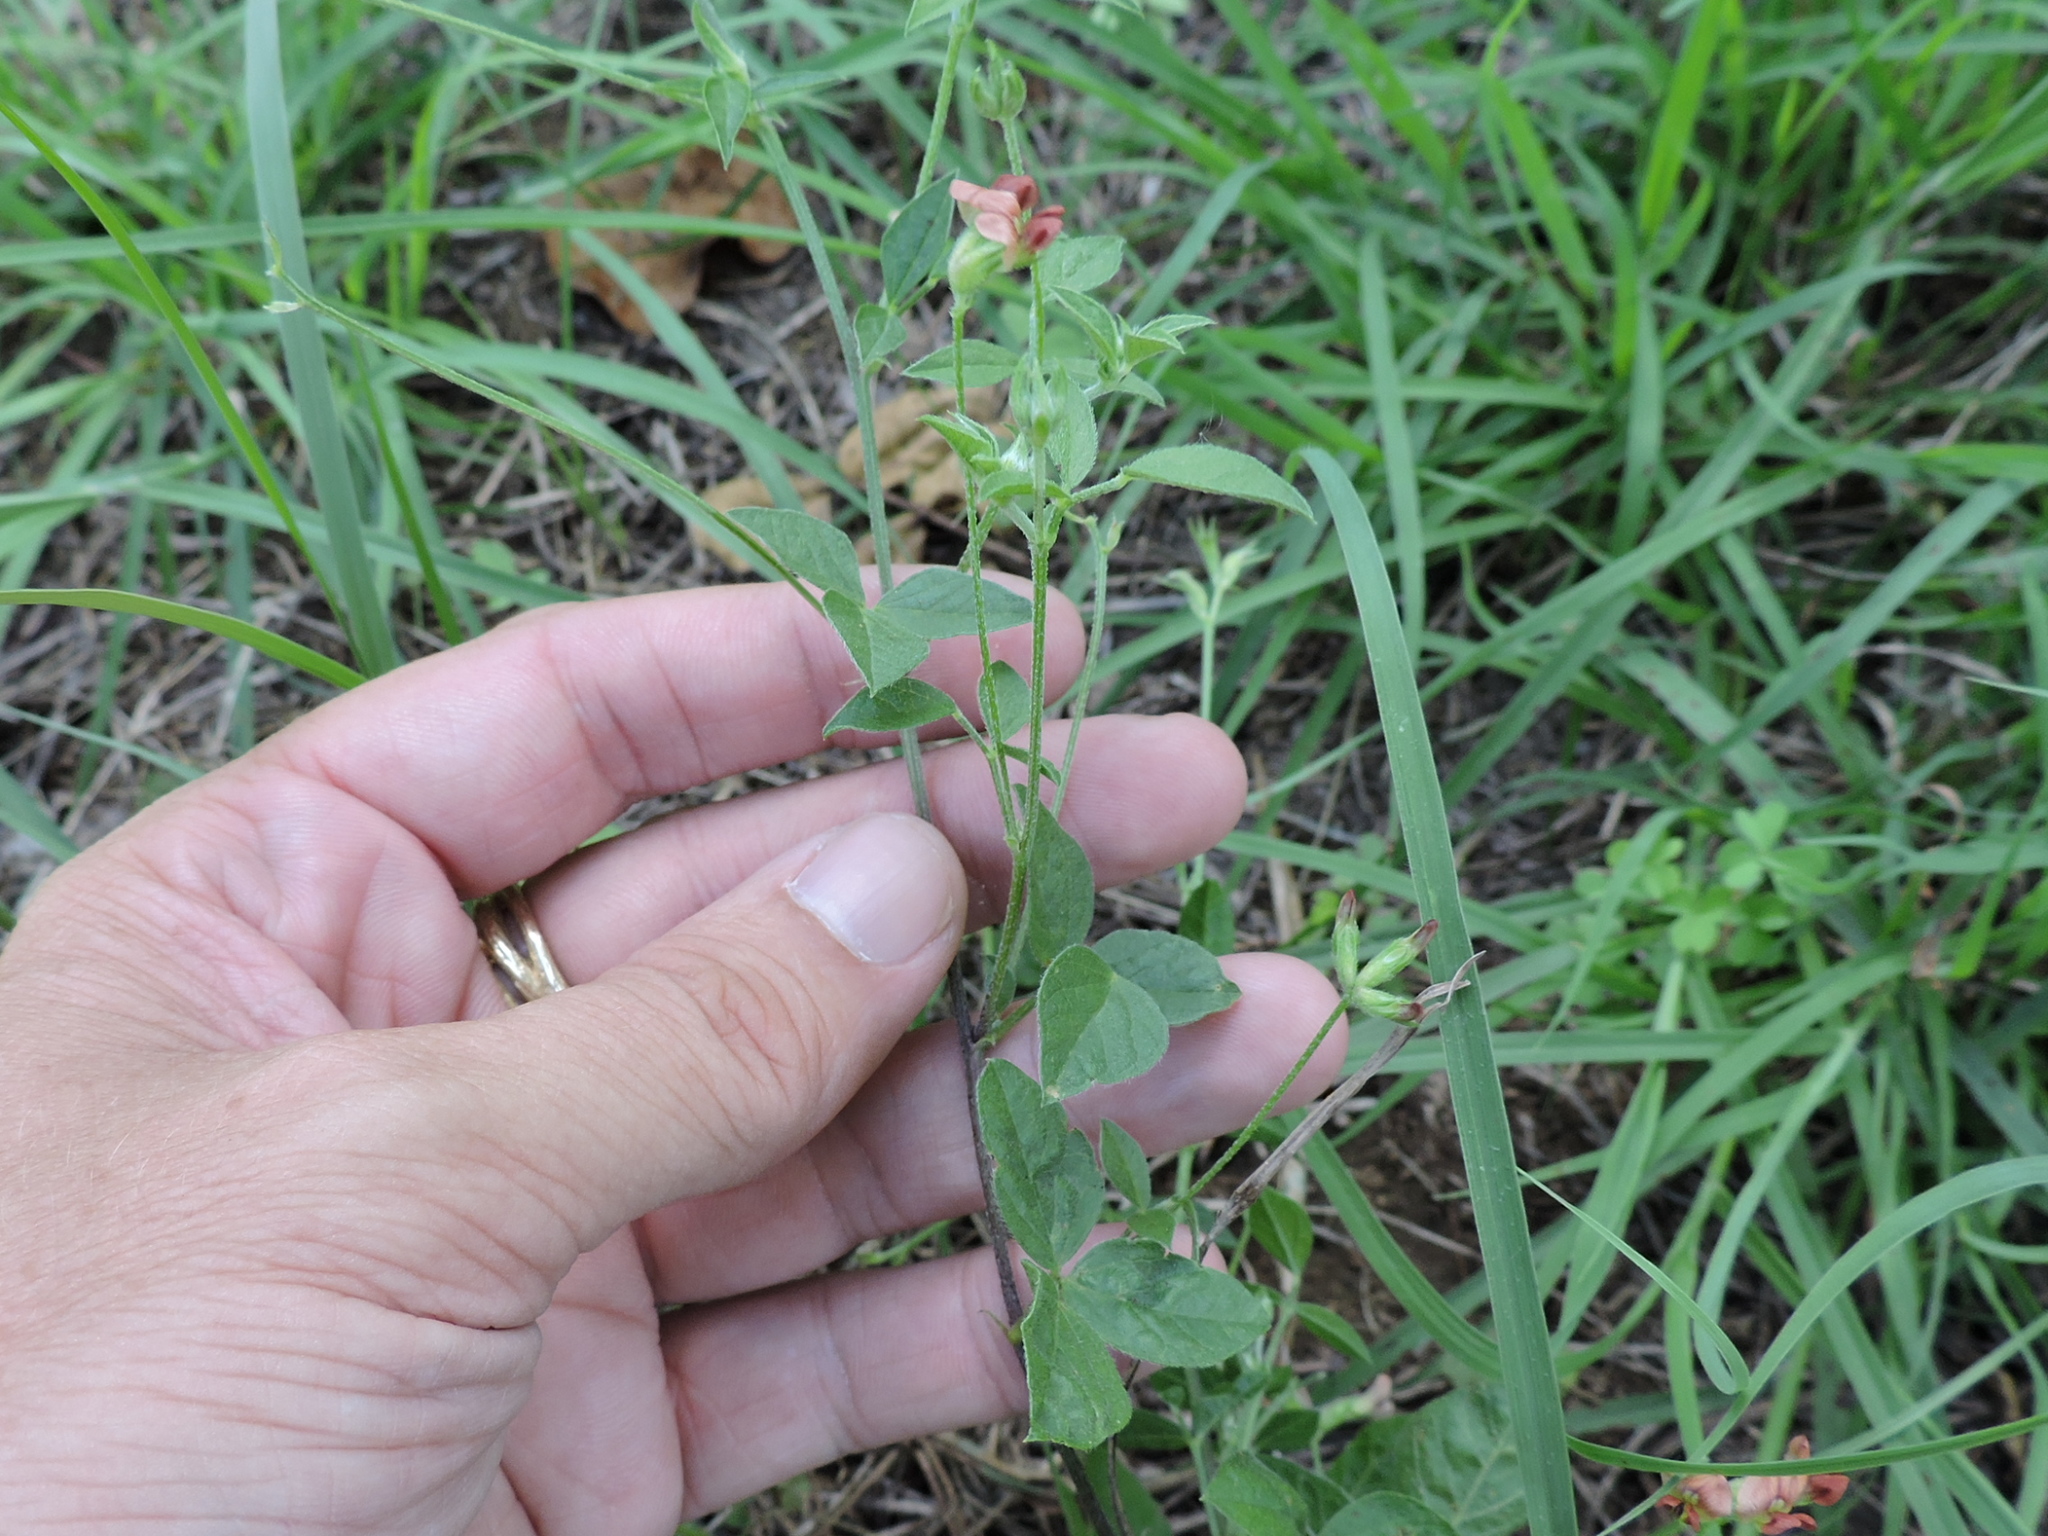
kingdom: Plantae
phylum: Tracheophyta
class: Magnoliopsida
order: Fabales
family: Fabaceae
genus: Pediomelum
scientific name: Pediomelum rhombifolium
